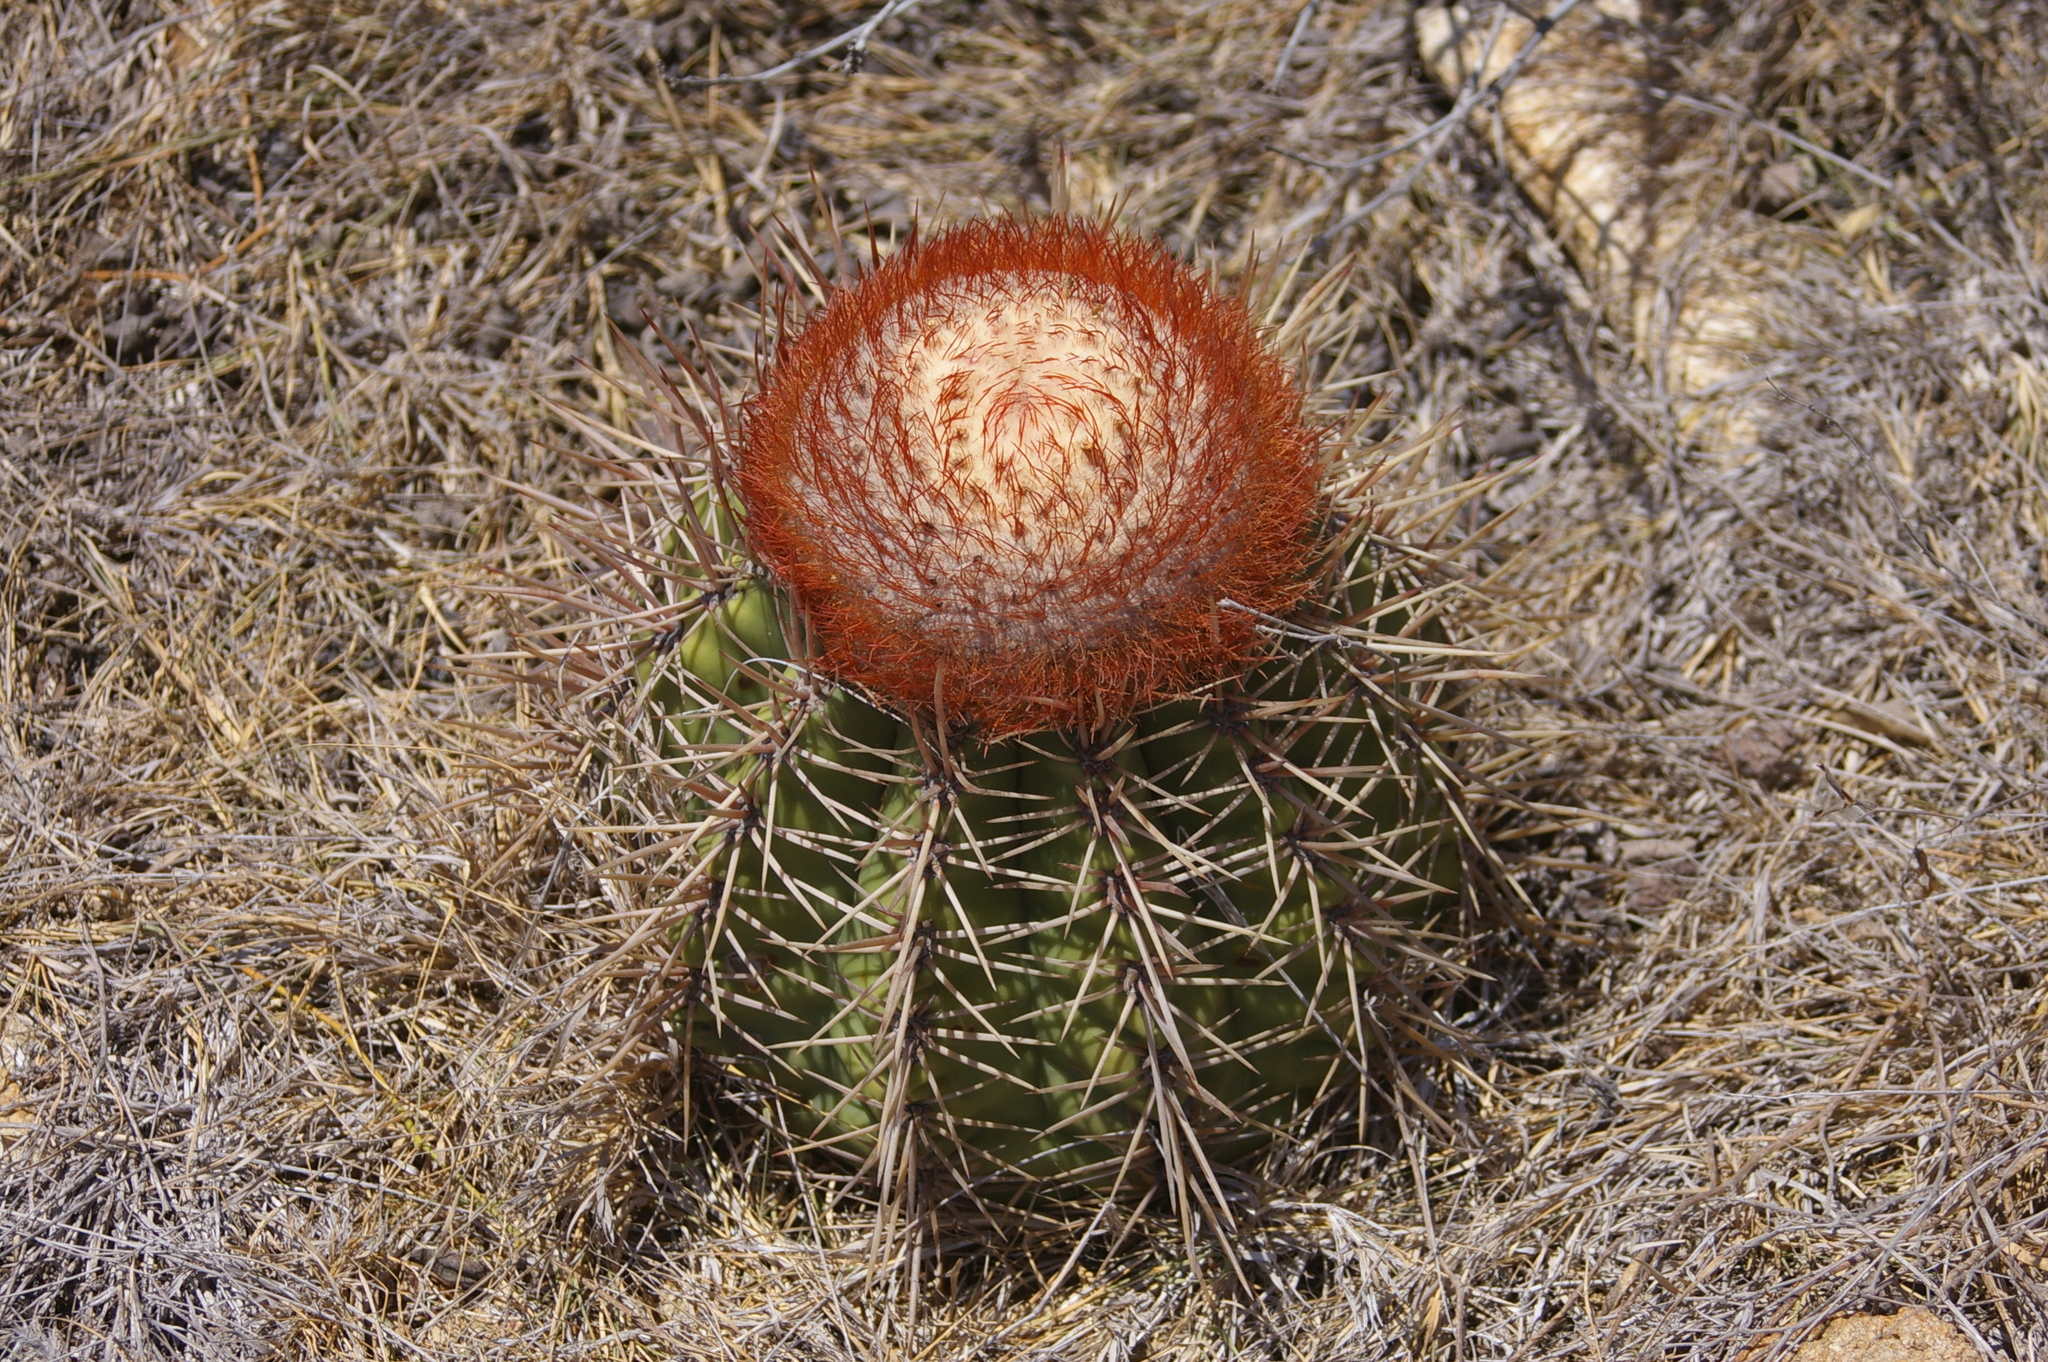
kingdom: Plantae
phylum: Tracheophyta
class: Magnoliopsida
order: Caryophyllales
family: Cactaceae
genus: Melocactus
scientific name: Melocactus curvispinus
